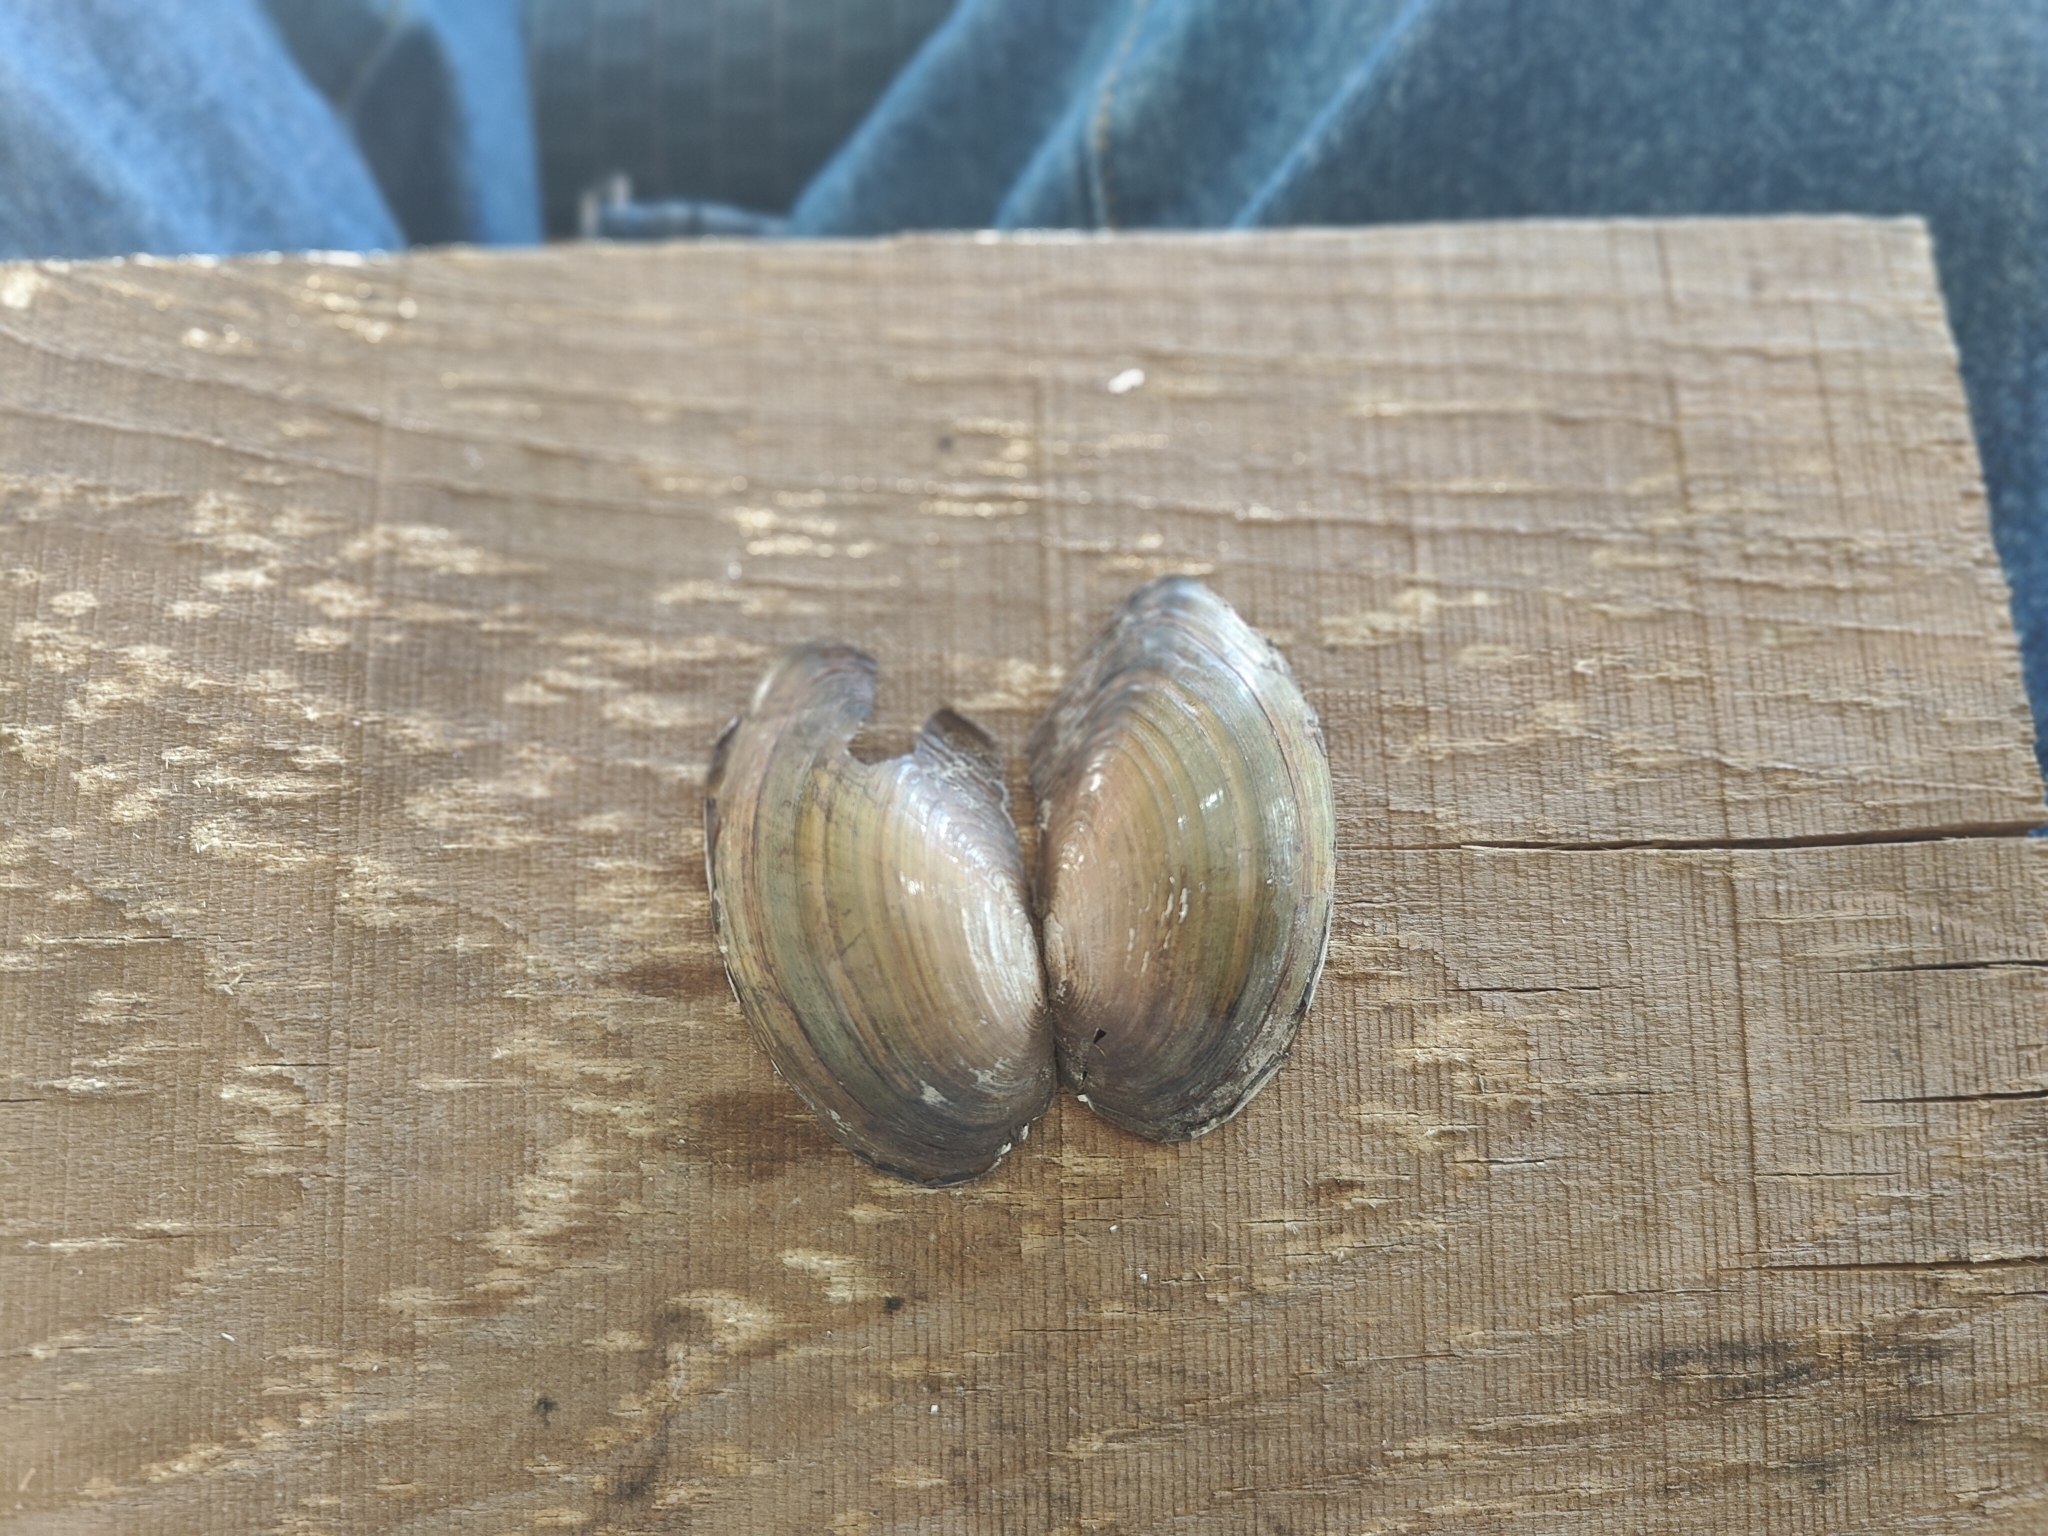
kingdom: Animalia
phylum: Mollusca
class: Bivalvia
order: Unionida
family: Unionidae
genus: Utterbackia
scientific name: Utterbackia imbecillis
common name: Paper pondshell
